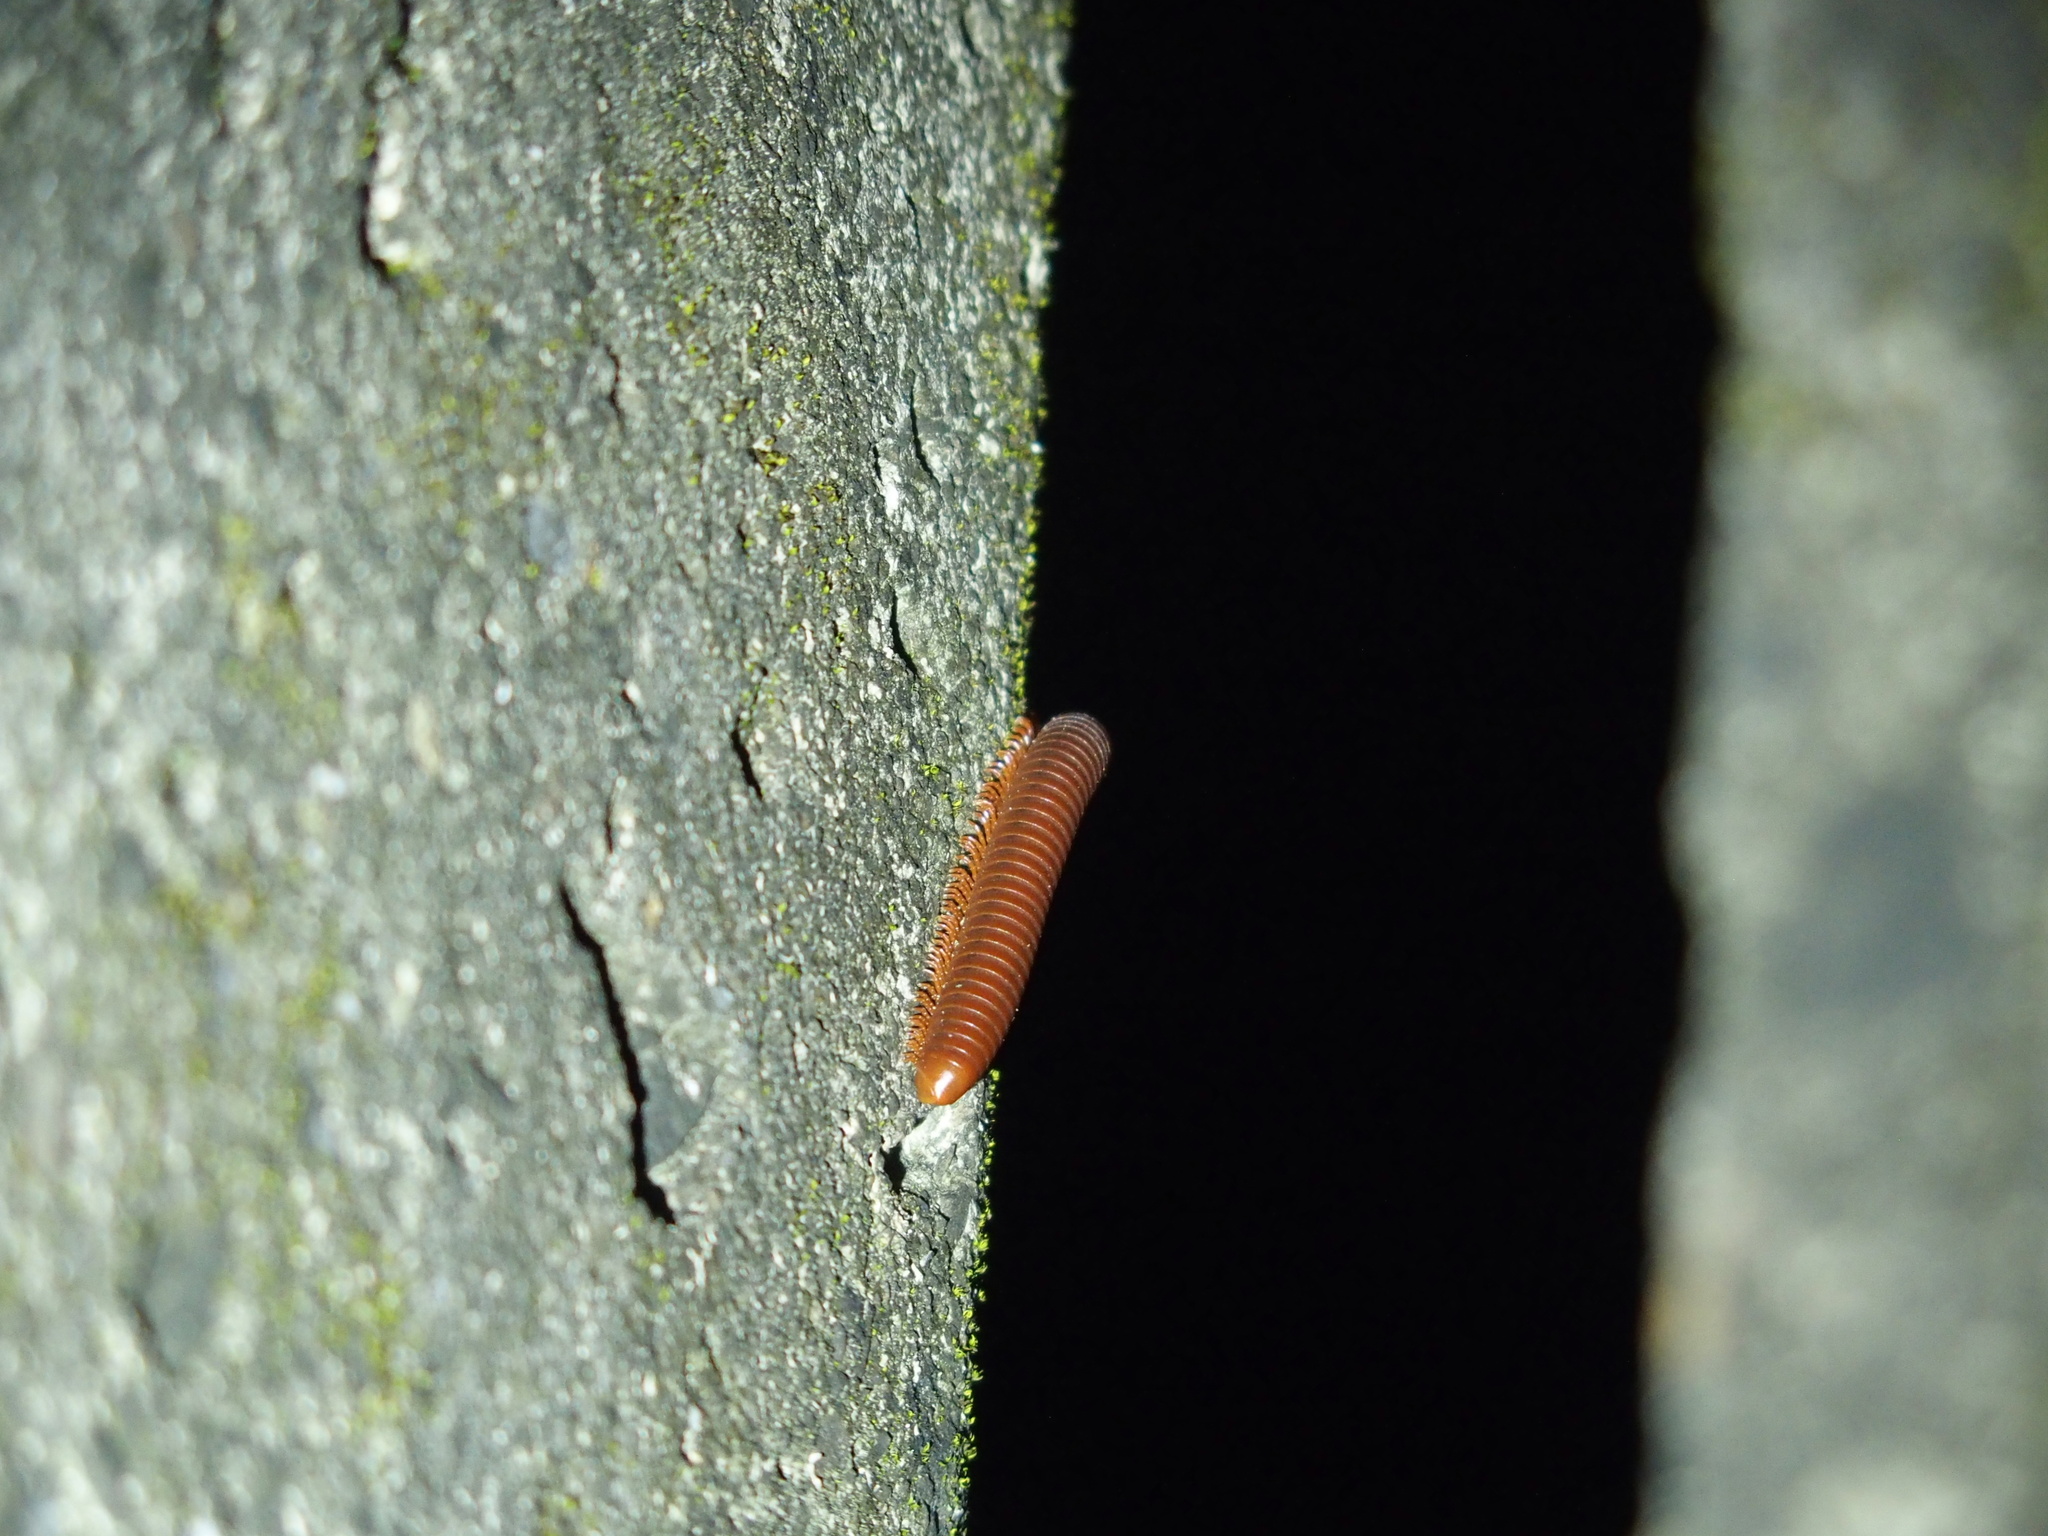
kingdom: Animalia
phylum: Arthropoda
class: Diplopoda
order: Spirobolida
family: Pachybolidae
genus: Trigoniulus
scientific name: Trigoniulus corallinus
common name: Millipede
